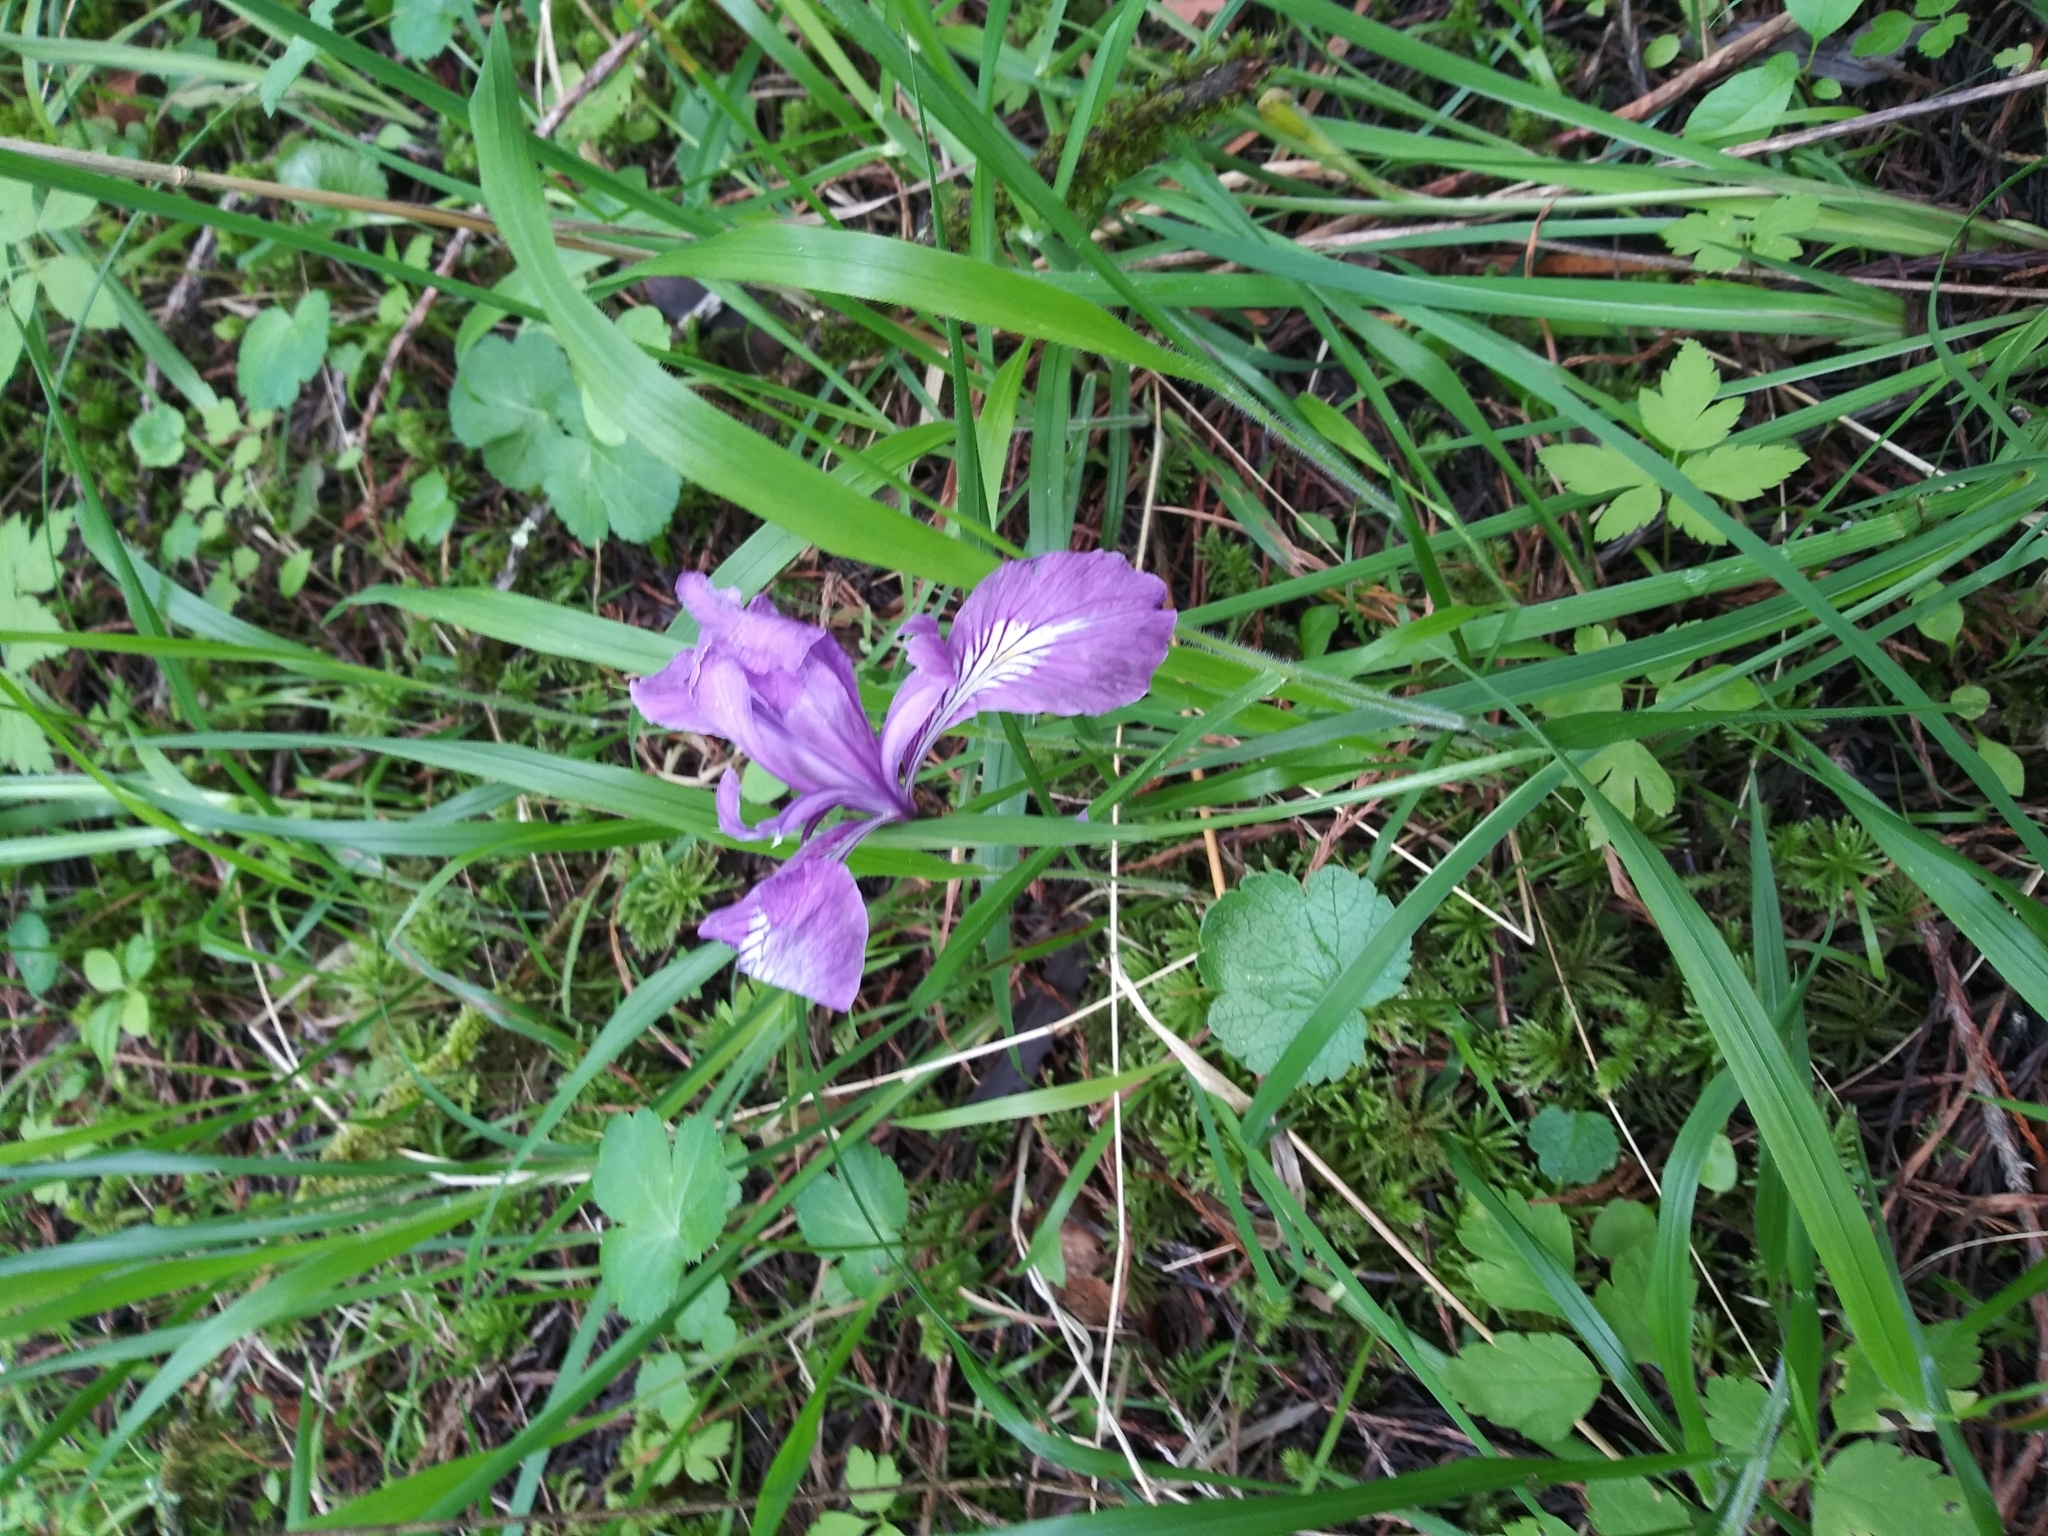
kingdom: Plantae
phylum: Tracheophyta
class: Liliopsida
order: Asparagales
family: Iridaceae
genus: Iris
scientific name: Iris tenax
